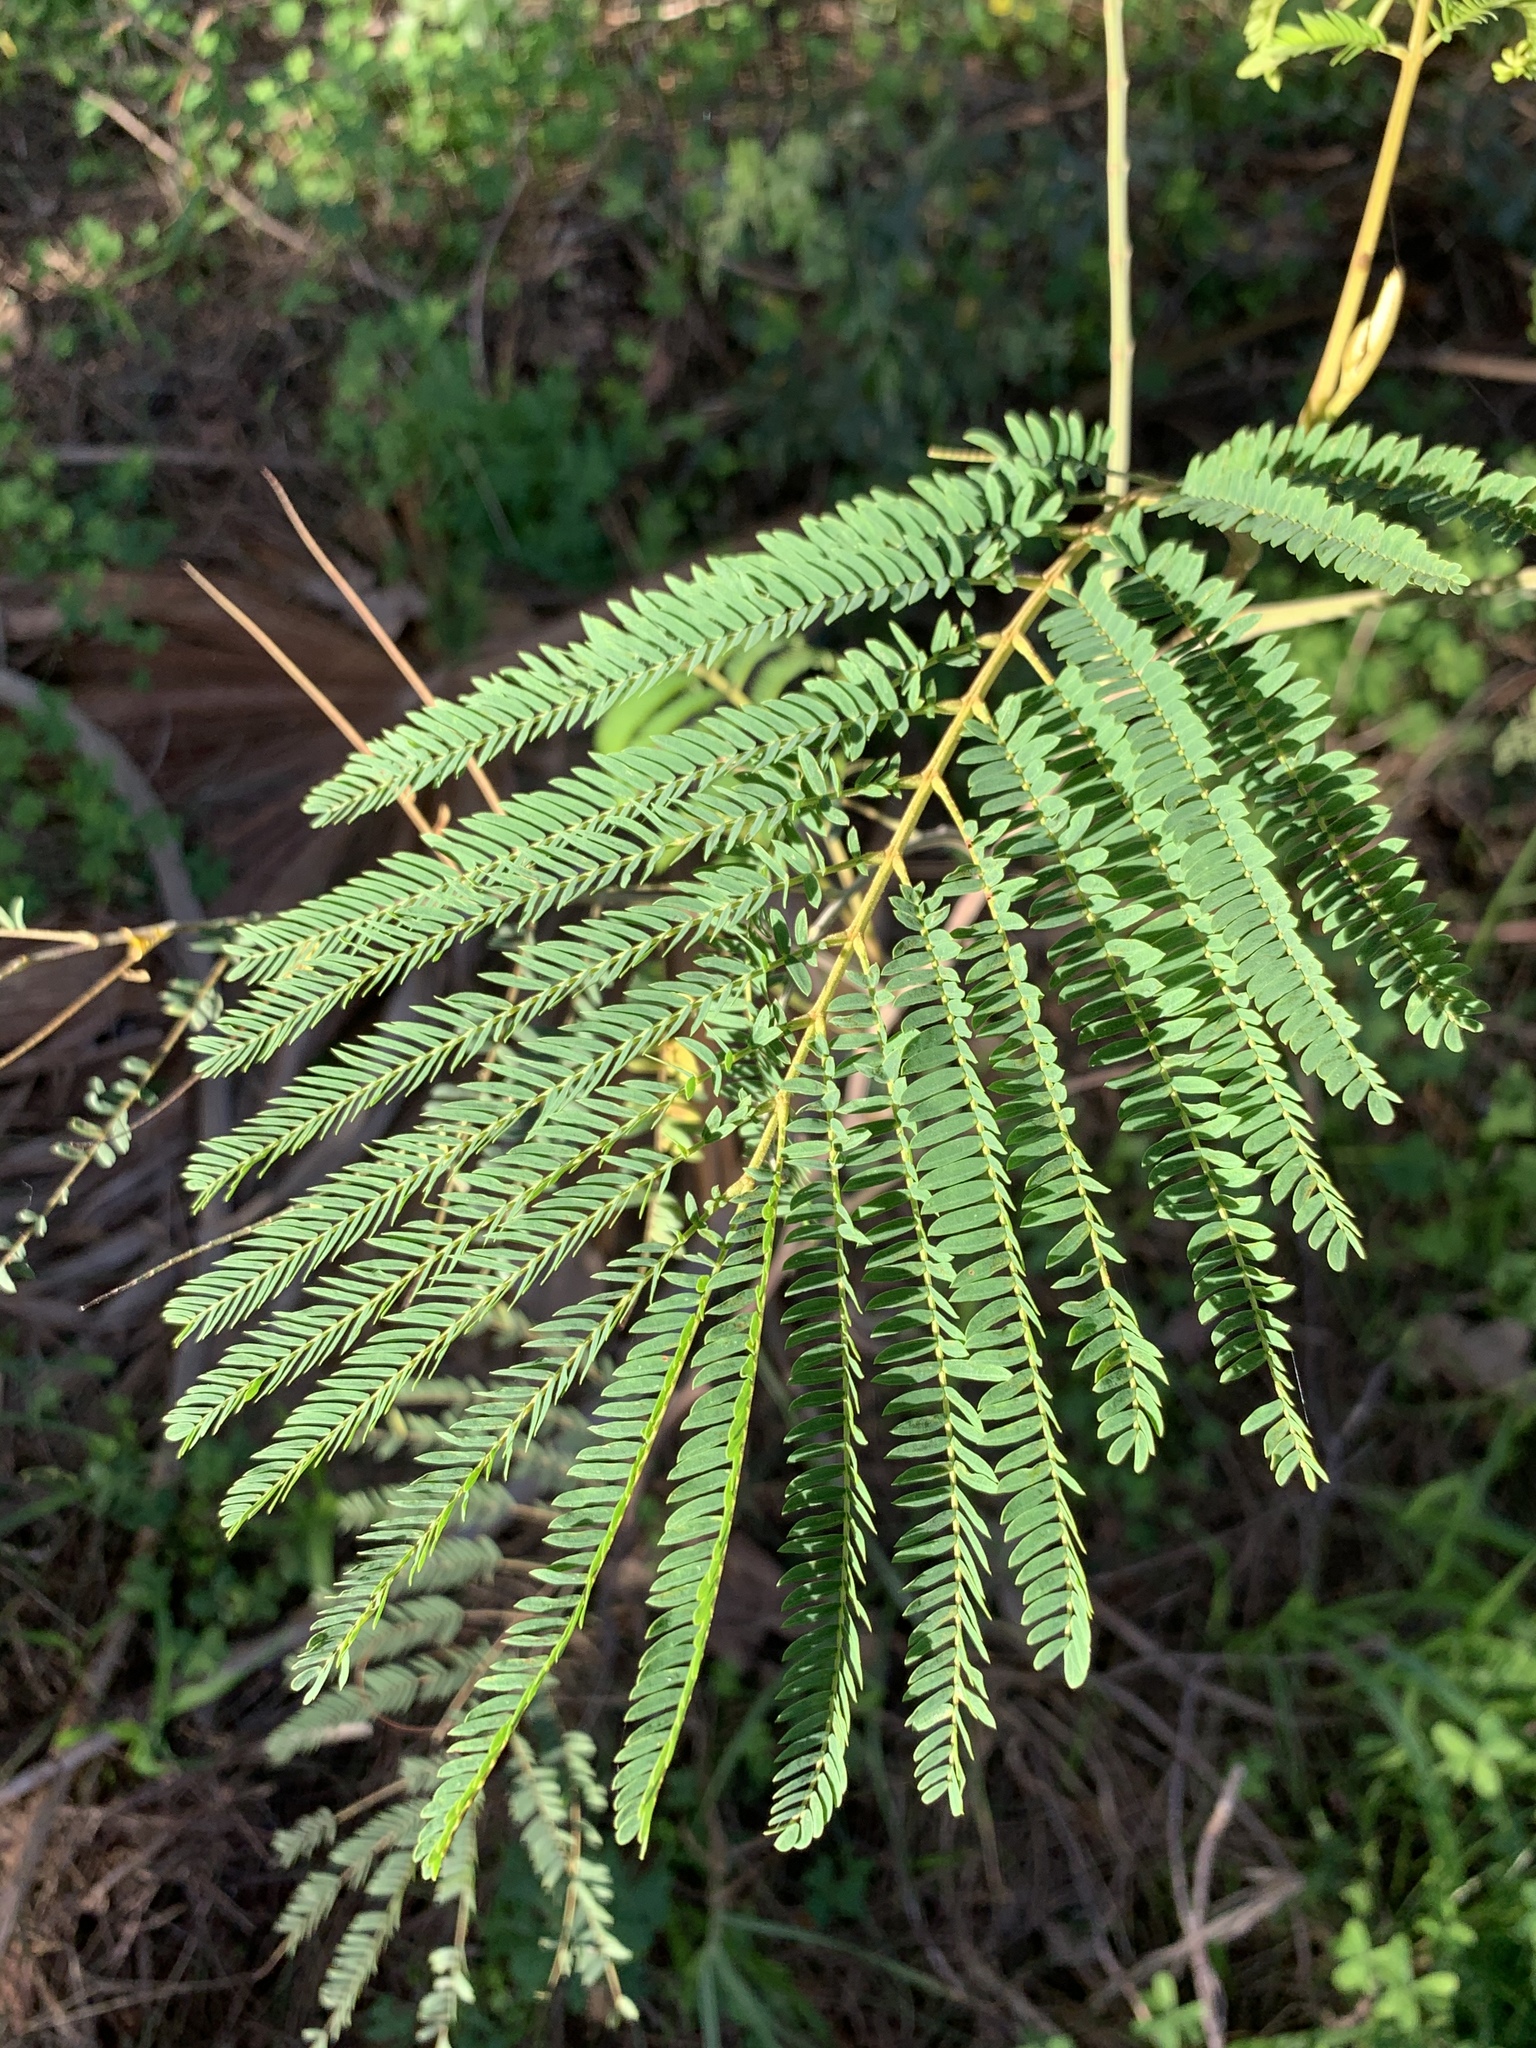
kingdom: Plantae
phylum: Tracheophyta
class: Magnoliopsida
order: Fabales
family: Fabaceae
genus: Paraserianthes
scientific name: Paraserianthes lophantha
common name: Plume albizia
